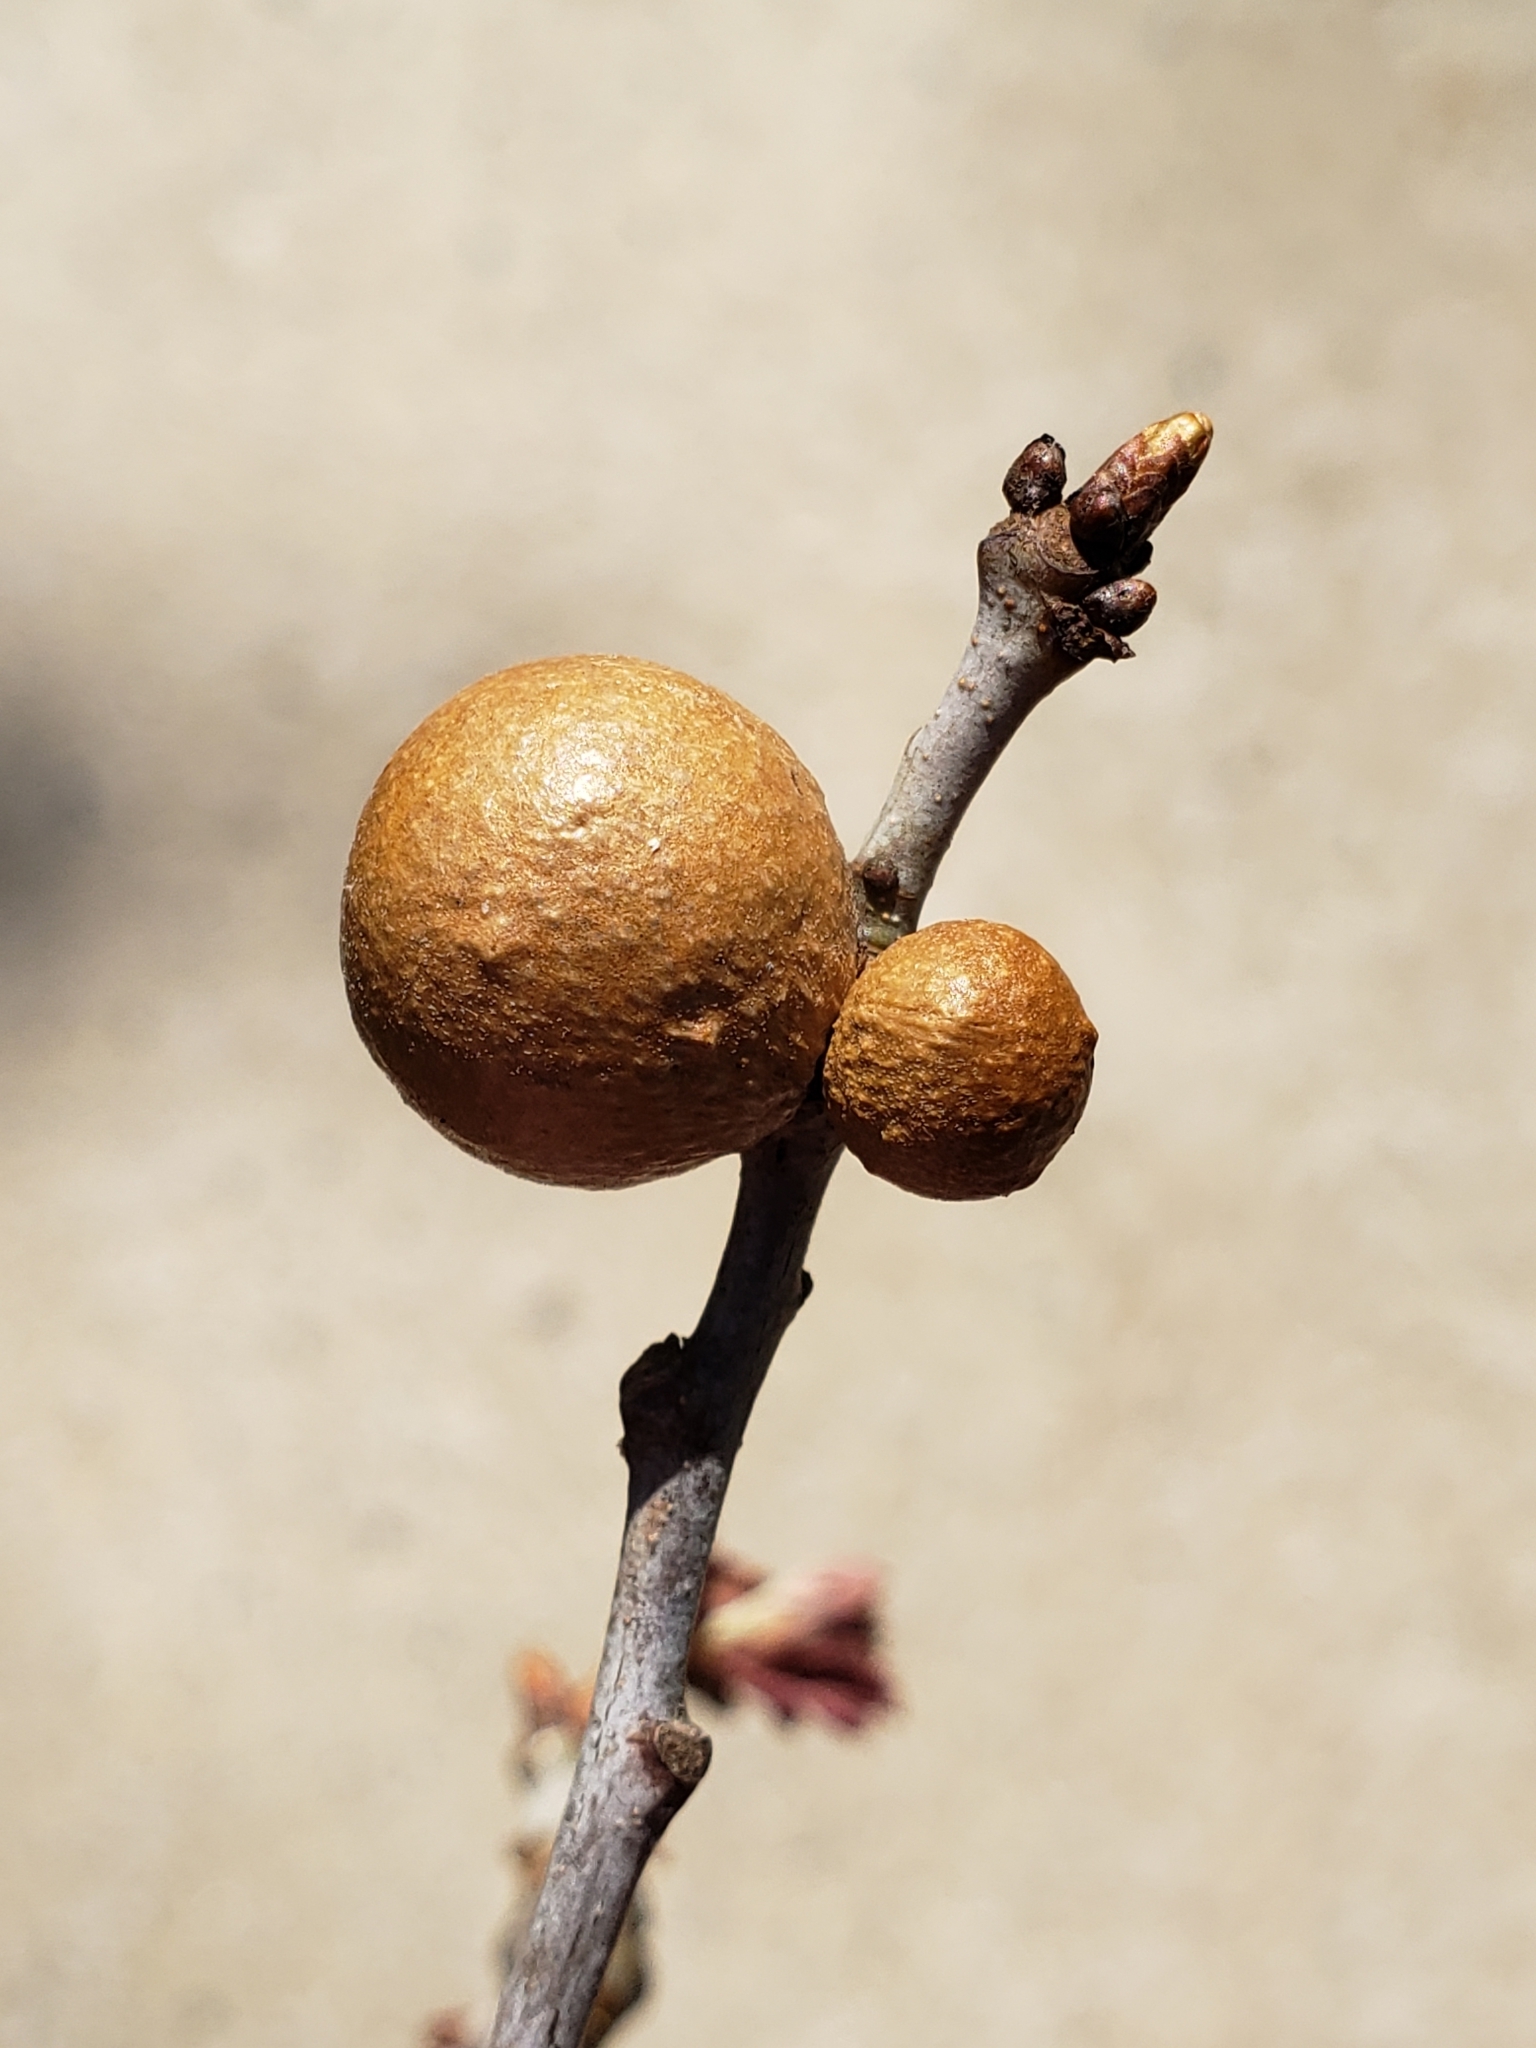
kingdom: Animalia
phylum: Arthropoda
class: Insecta
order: Hymenoptera
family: Cynipidae
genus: Disholcaspis
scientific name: Disholcaspis quercusglobulus
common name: Round bullet gall wasp
